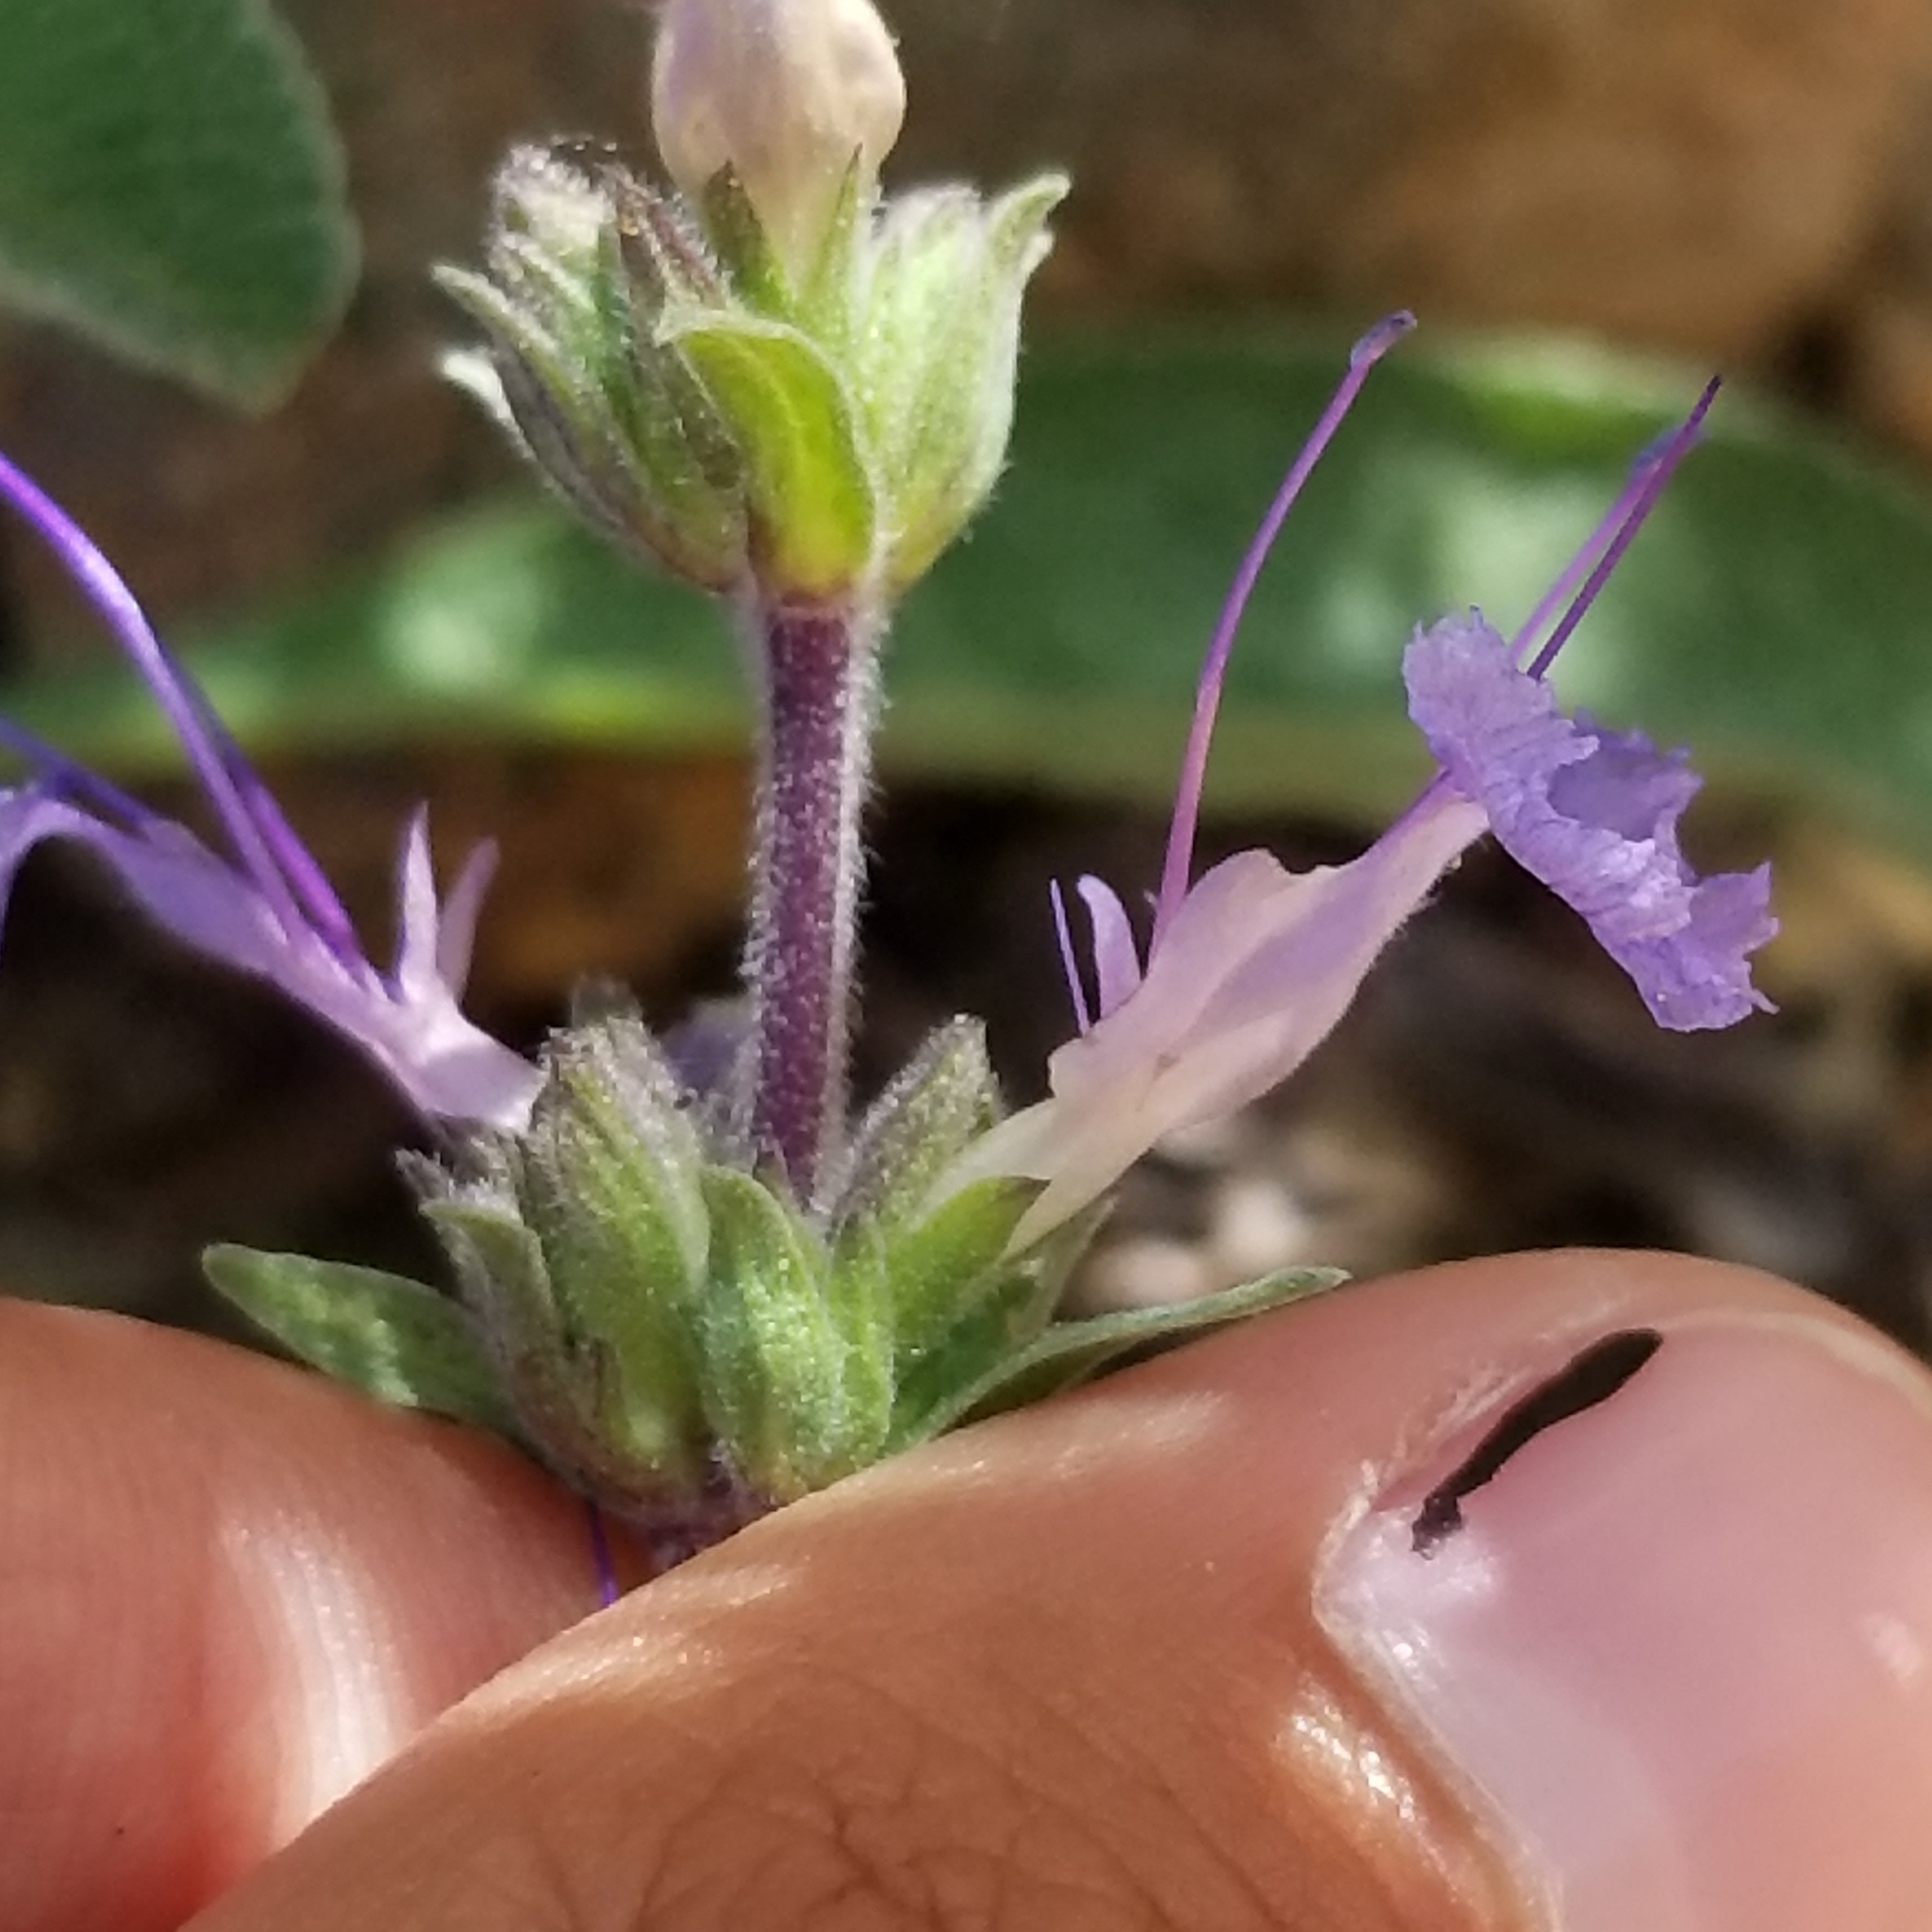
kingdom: Plantae
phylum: Tracheophyta
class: Magnoliopsida
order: Lamiales
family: Lamiaceae
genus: Salvia
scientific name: Salvia sonomensis
